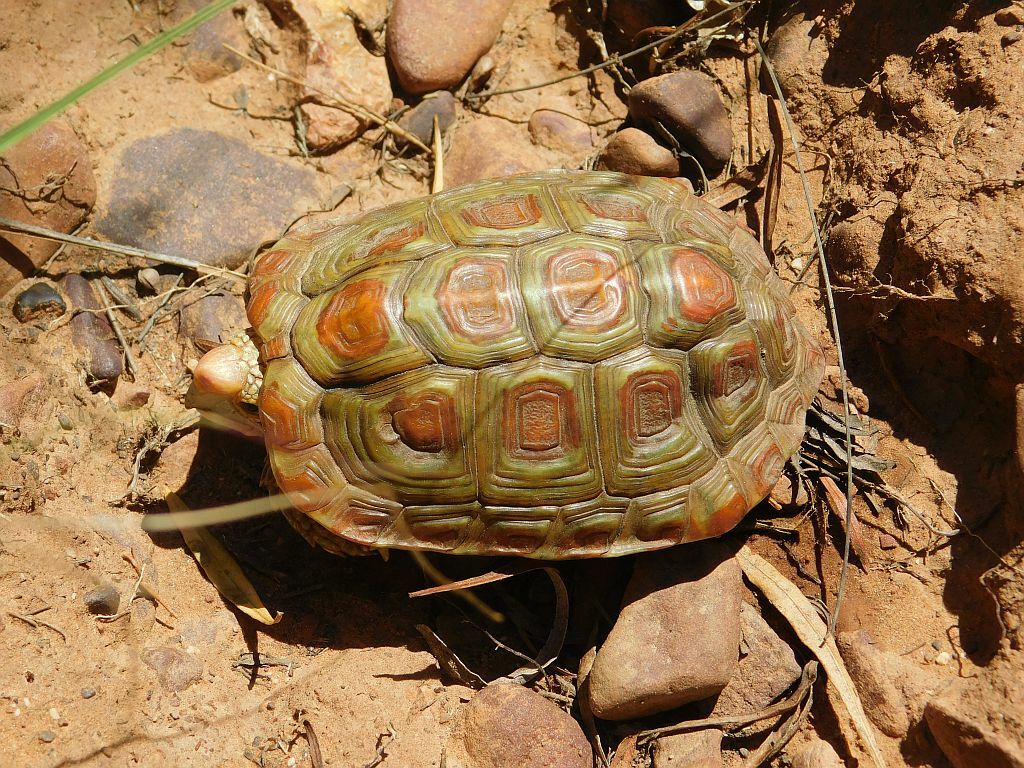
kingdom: Animalia
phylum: Chordata
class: Testudines
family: Testudinidae
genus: Homopus
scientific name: Homopus areolatus
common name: Parrot-beaked tortoise
